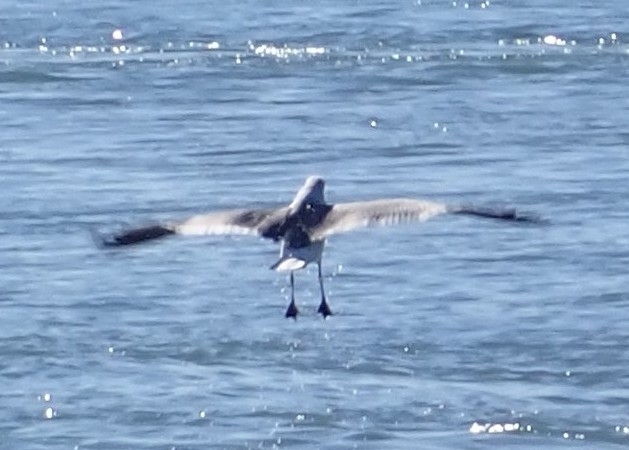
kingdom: Animalia
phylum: Chordata
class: Aves
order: Charadriiformes
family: Laridae
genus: Leucophaeus
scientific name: Leucophaeus atricilla
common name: Laughing gull
